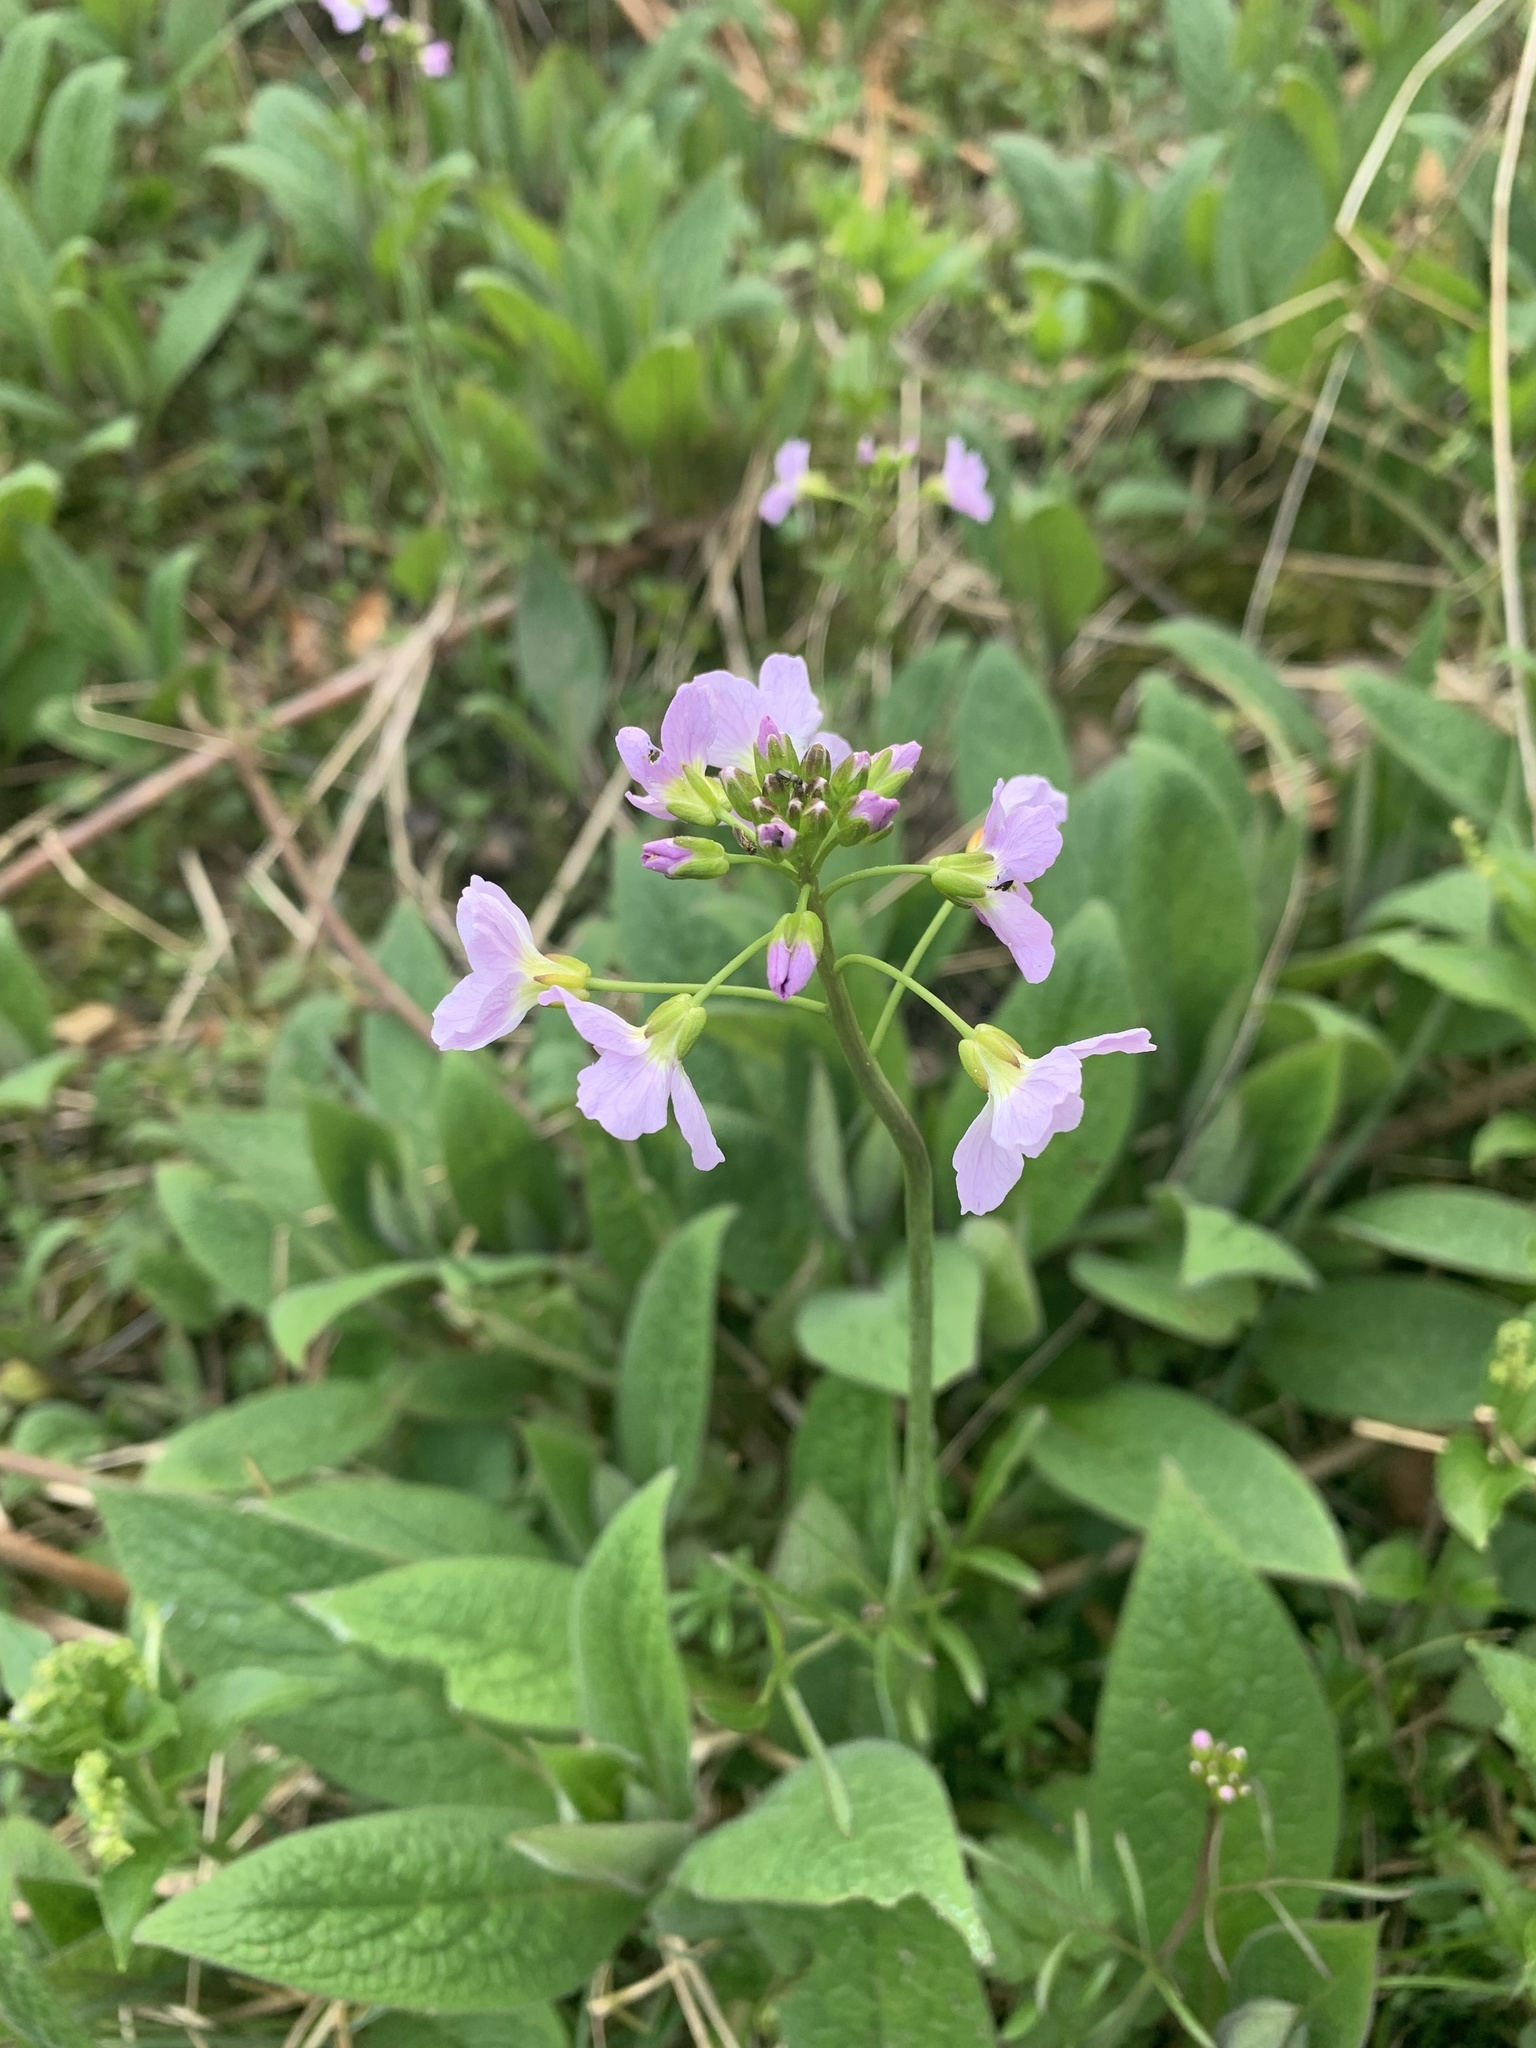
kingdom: Plantae
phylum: Tracheophyta
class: Magnoliopsida
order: Brassicales
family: Brassicaceae
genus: Cardamine
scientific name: Cardamine pratensis
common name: Cuckoo flower
